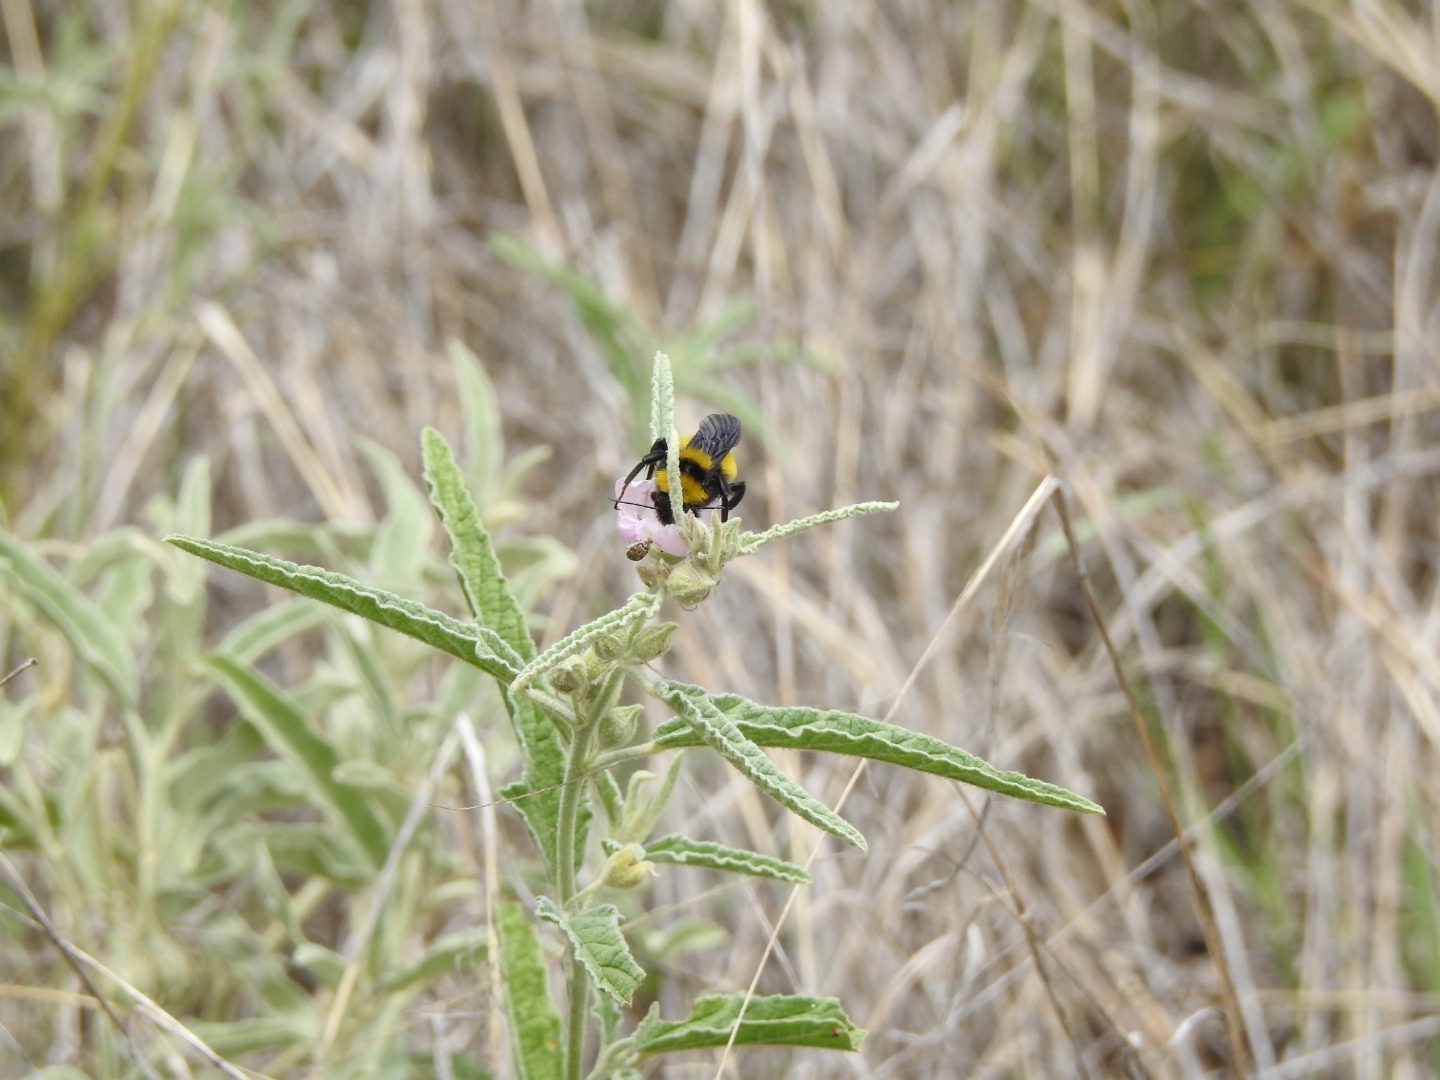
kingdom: Animalia
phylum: Arthropoda
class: Insecta
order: Hymenoptera
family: Apidae
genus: Bombus
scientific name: Bombus sonorus
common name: Sonoran bumble bee
